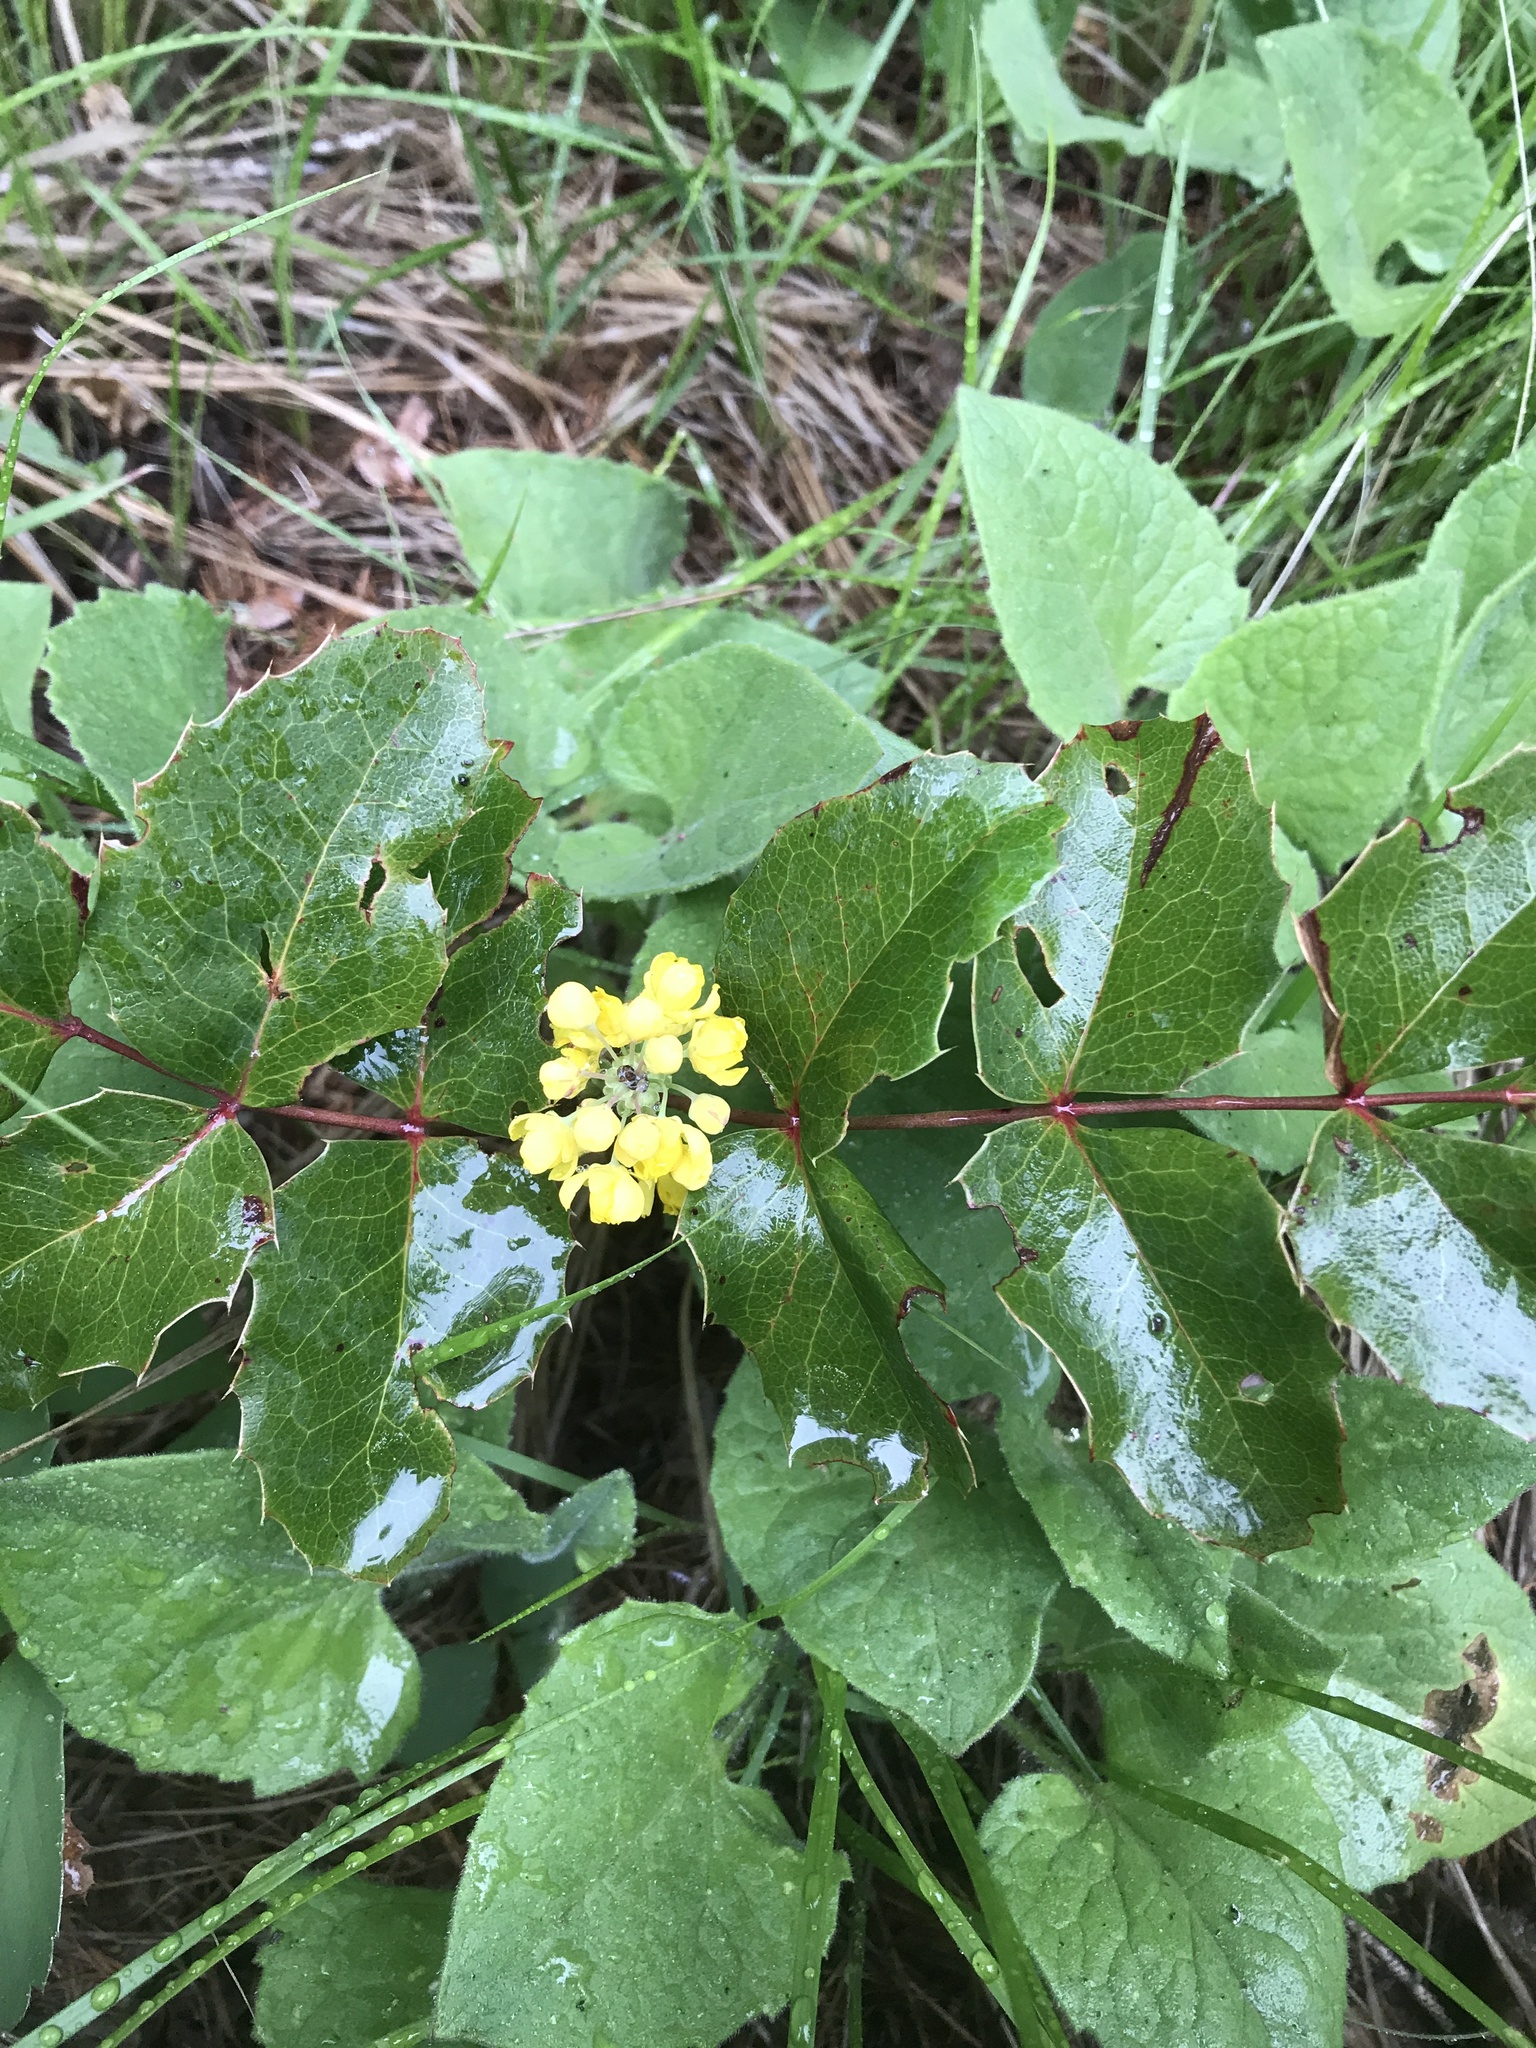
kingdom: Plantae
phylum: Tracheophyta
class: Magnoliopsida
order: Ranunculales
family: Berberidaceae
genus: Mahonia
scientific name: Mahonia repens
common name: Creeping oregon-grape
